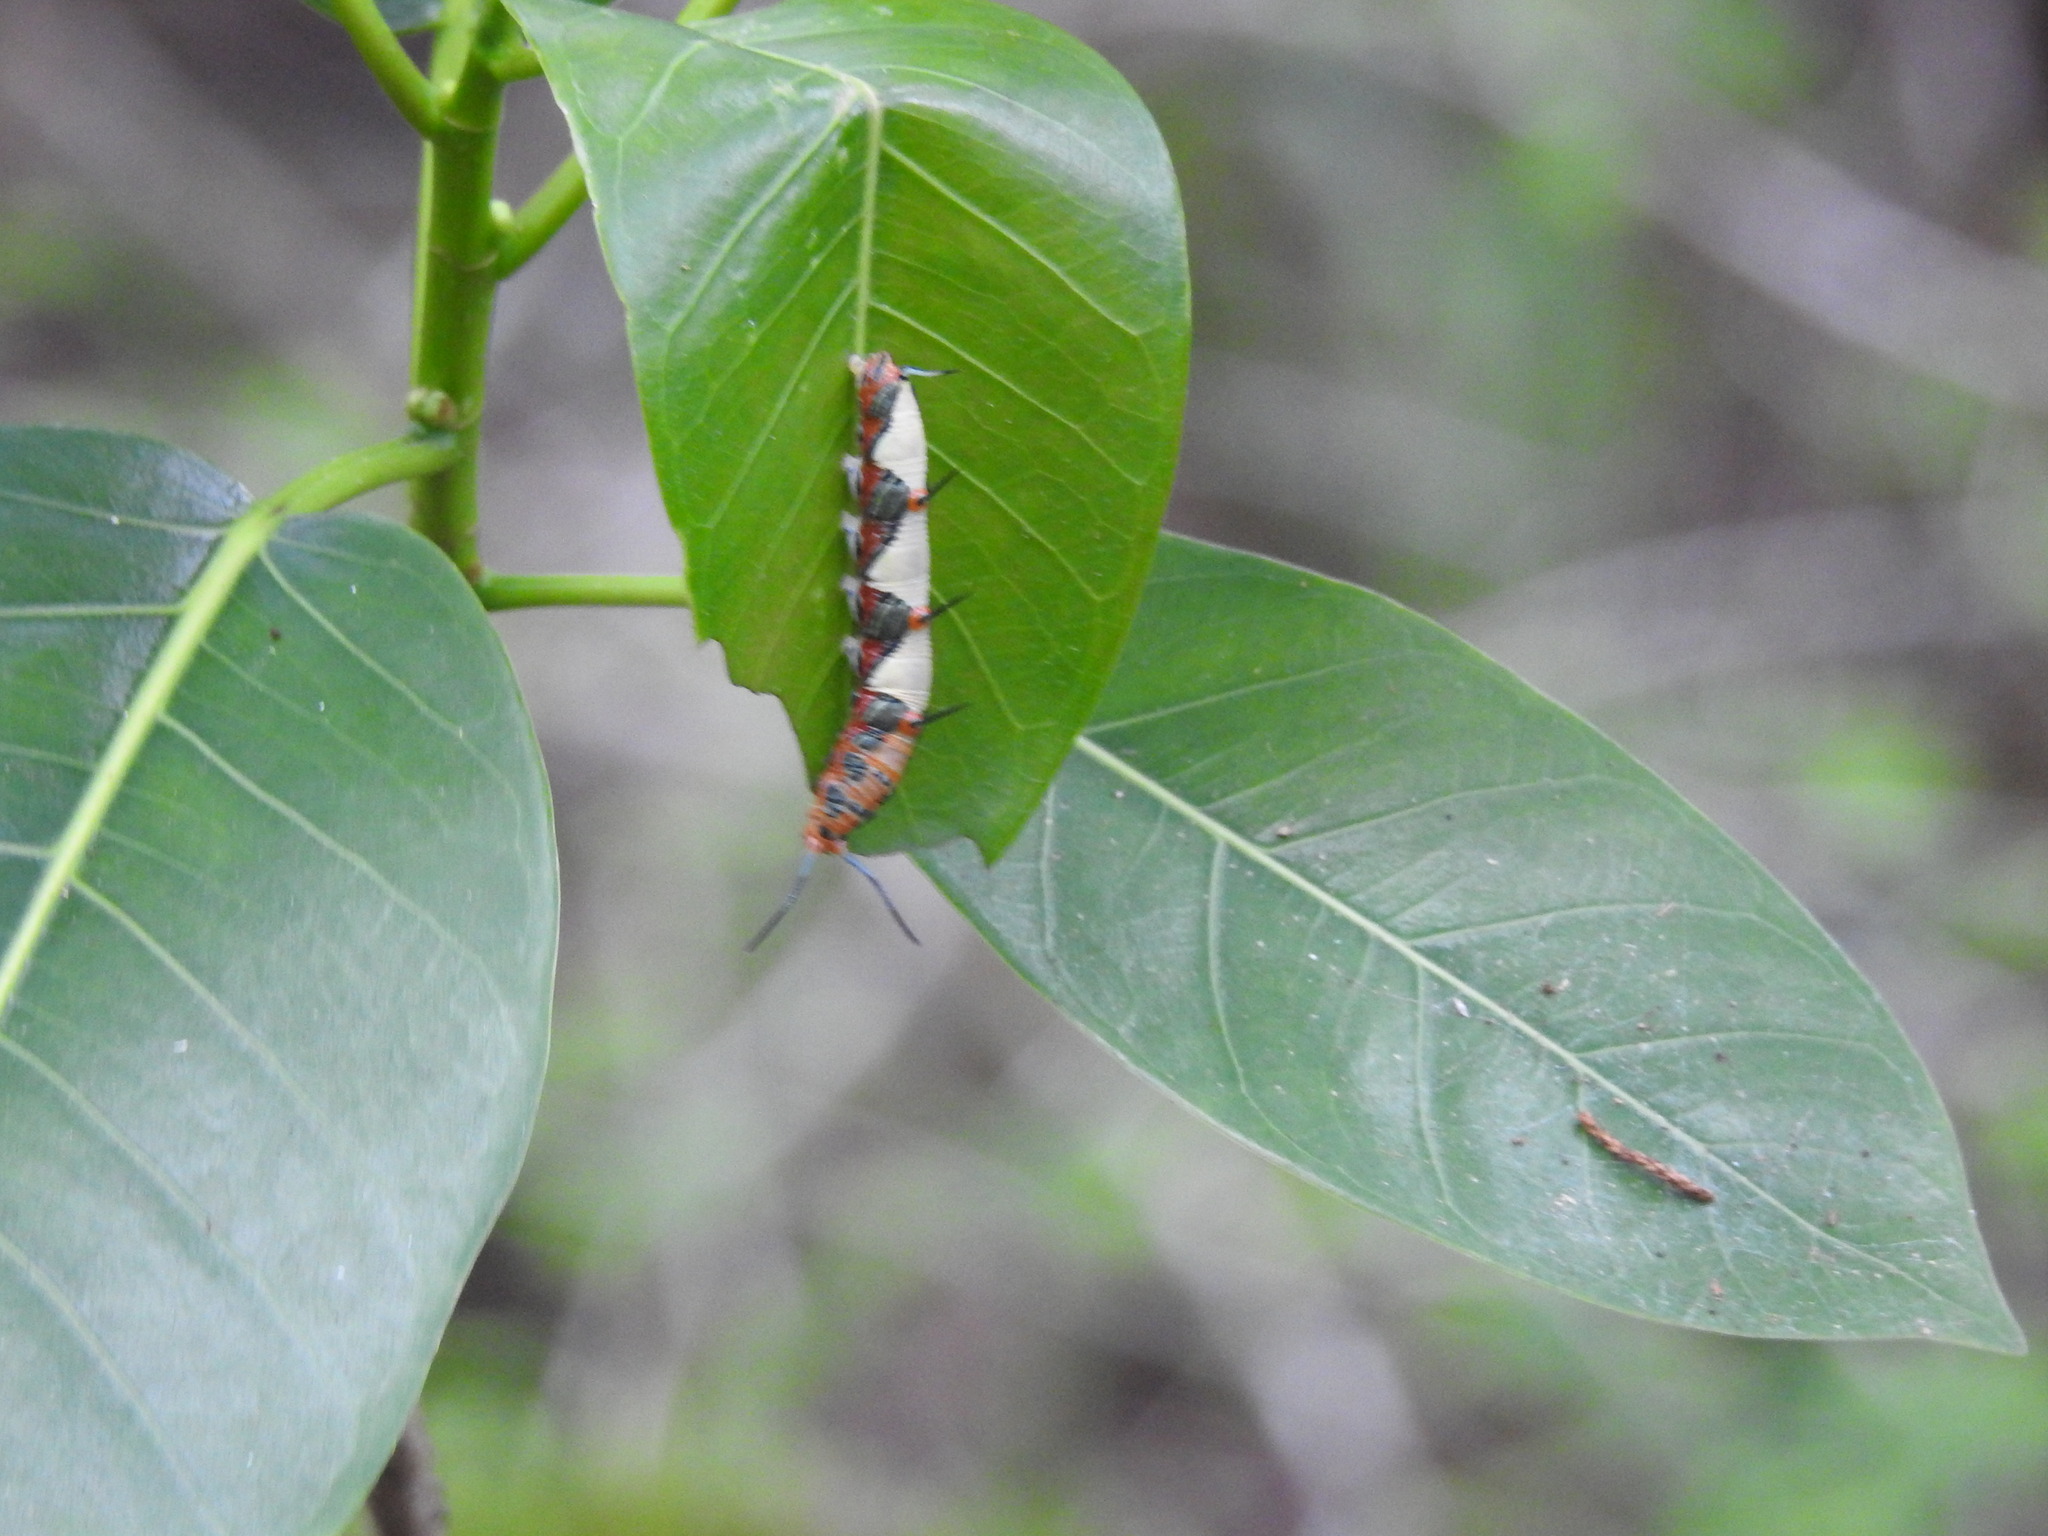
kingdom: Animalia
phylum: Arthropoda
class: Insecta
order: Lepidoptera
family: Nymphalidae
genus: Marpesia
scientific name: Marpesia petreus
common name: Red dagger wing
